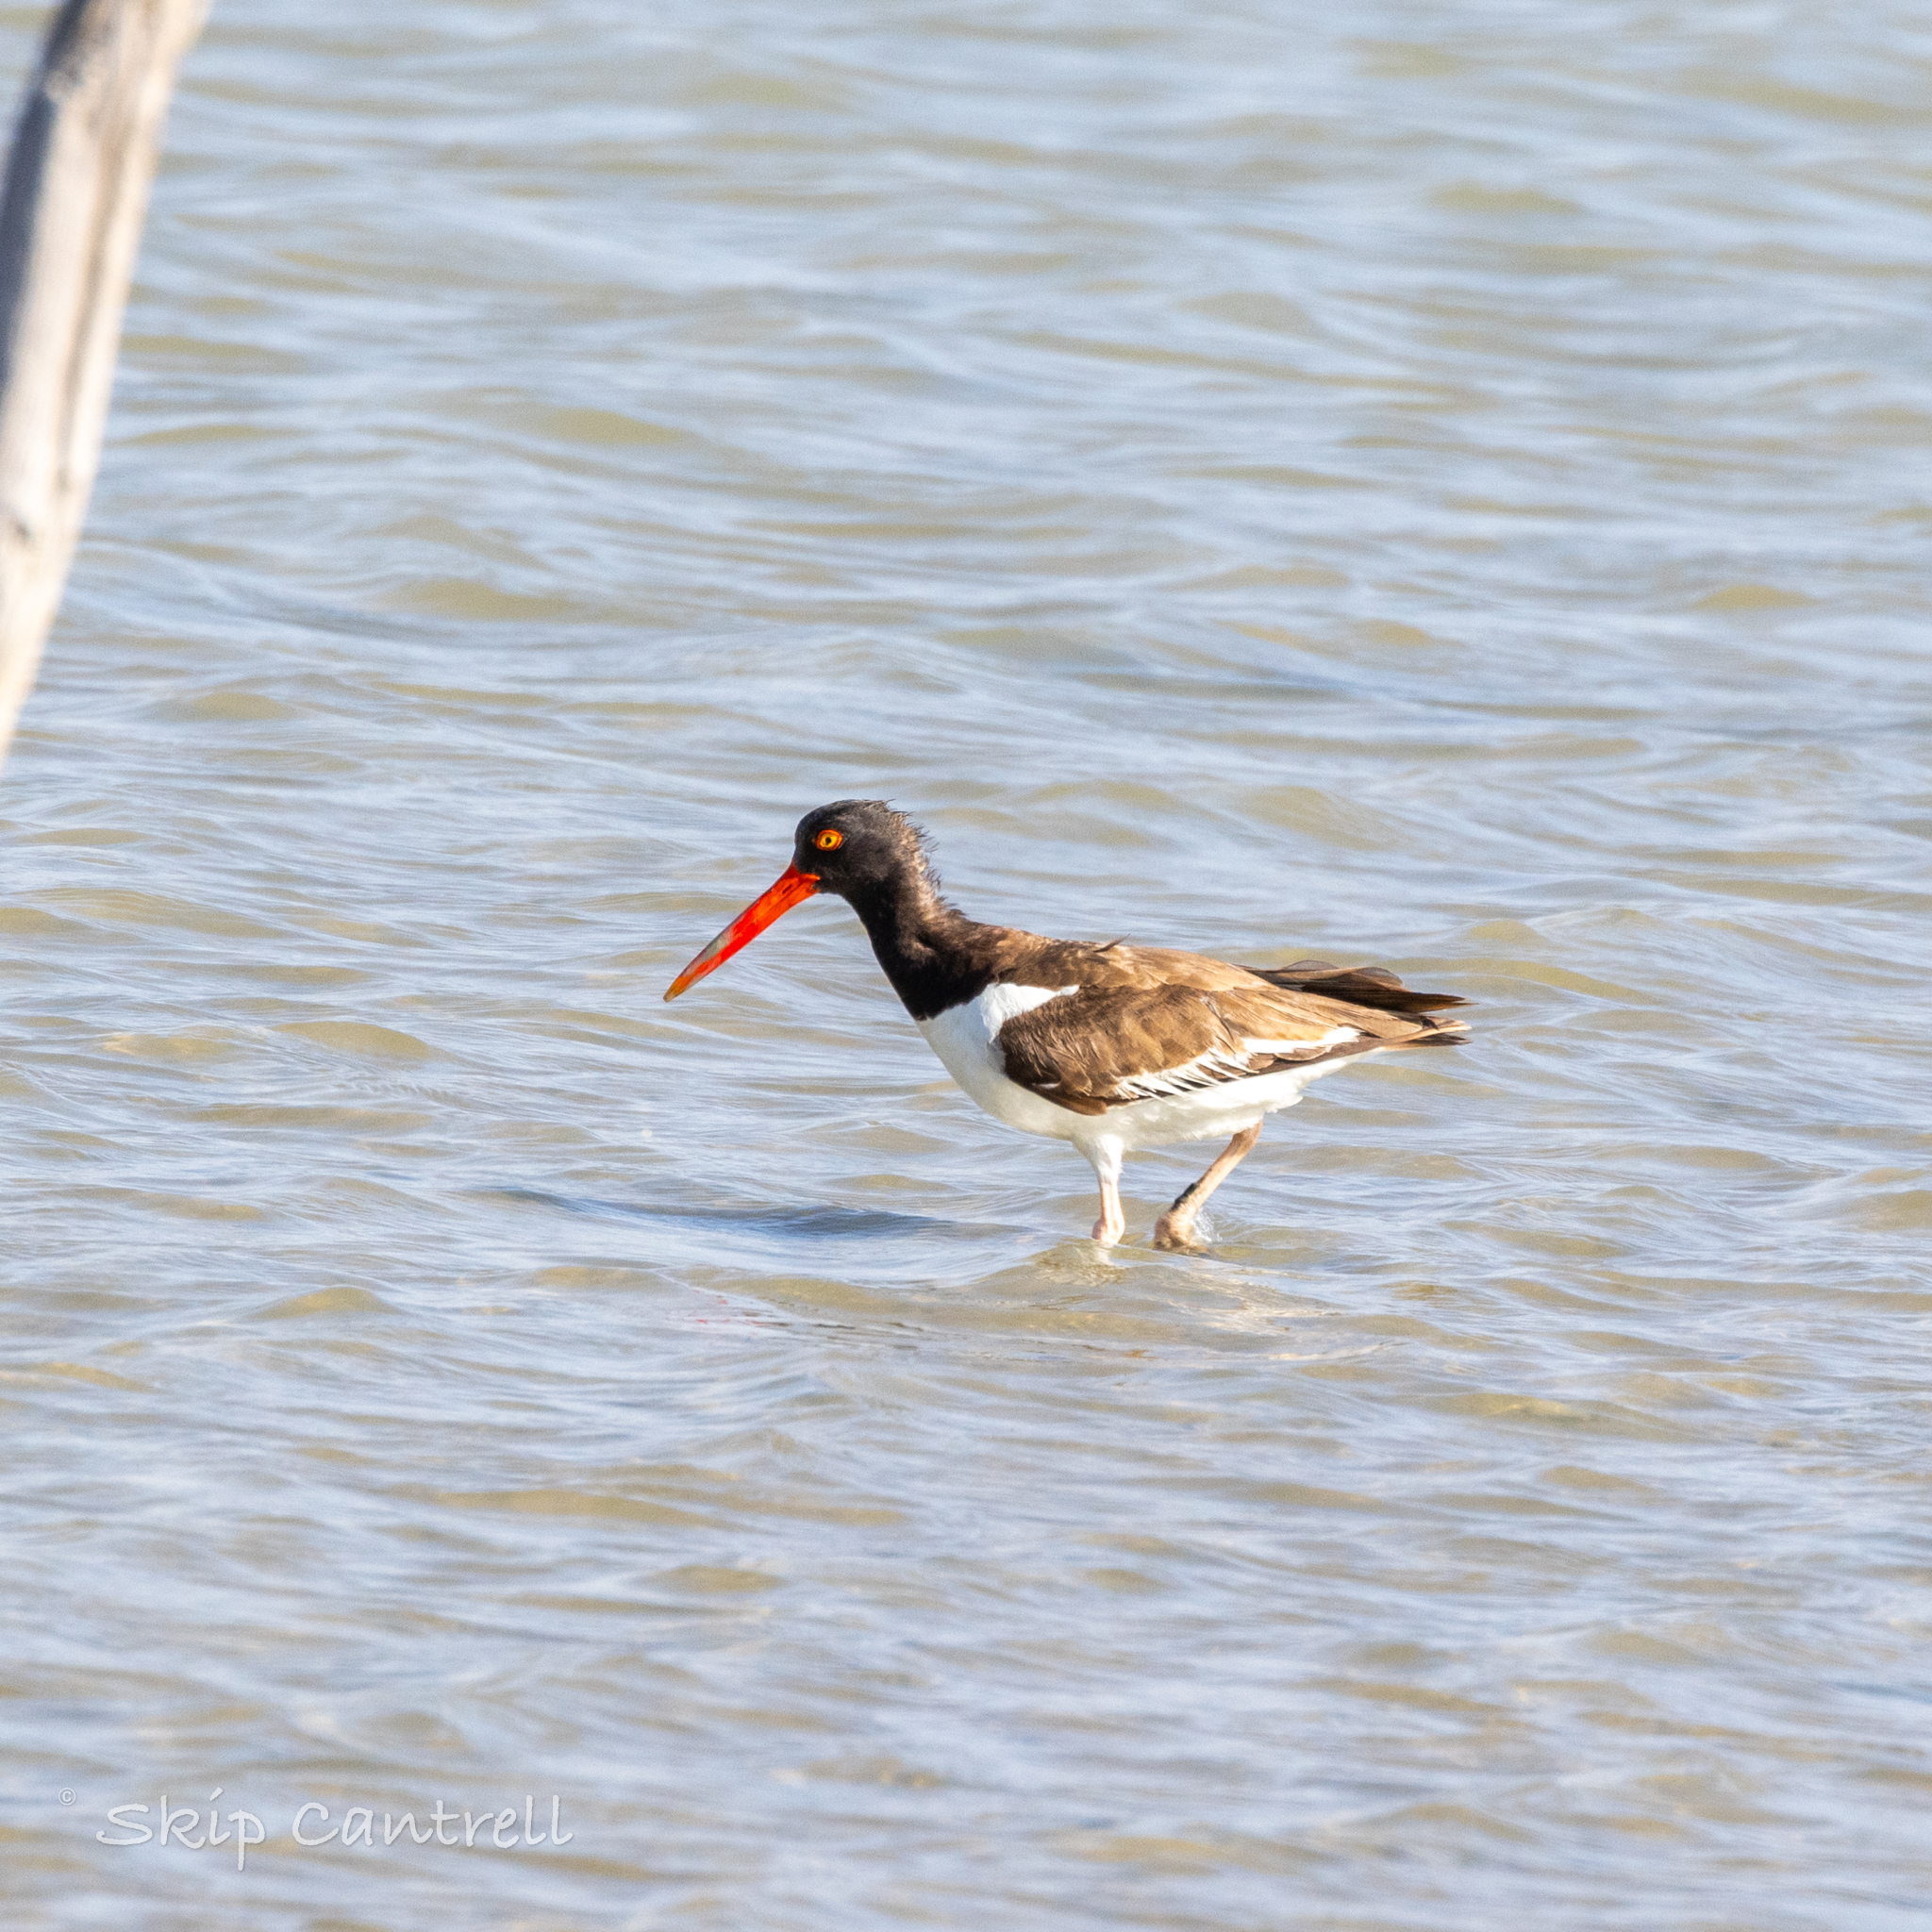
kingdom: Animalia
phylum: Chordata
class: Aves
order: Charadriiformes
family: Haematopodidae
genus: Haematopus
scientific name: Haematopus palliatus
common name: American oystercatcher
